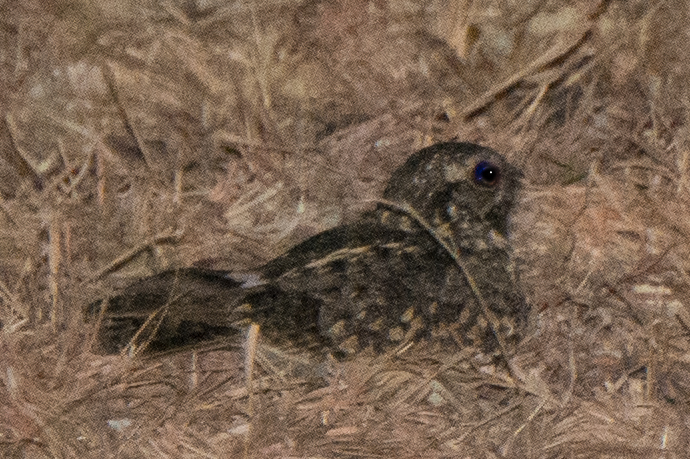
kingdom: Animalia
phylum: Chordata
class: Aves
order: Caprimulgiformes
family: Caprimulgidae
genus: Caprimulgus
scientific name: Caprimulgus affinis
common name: Savanna nightjar
